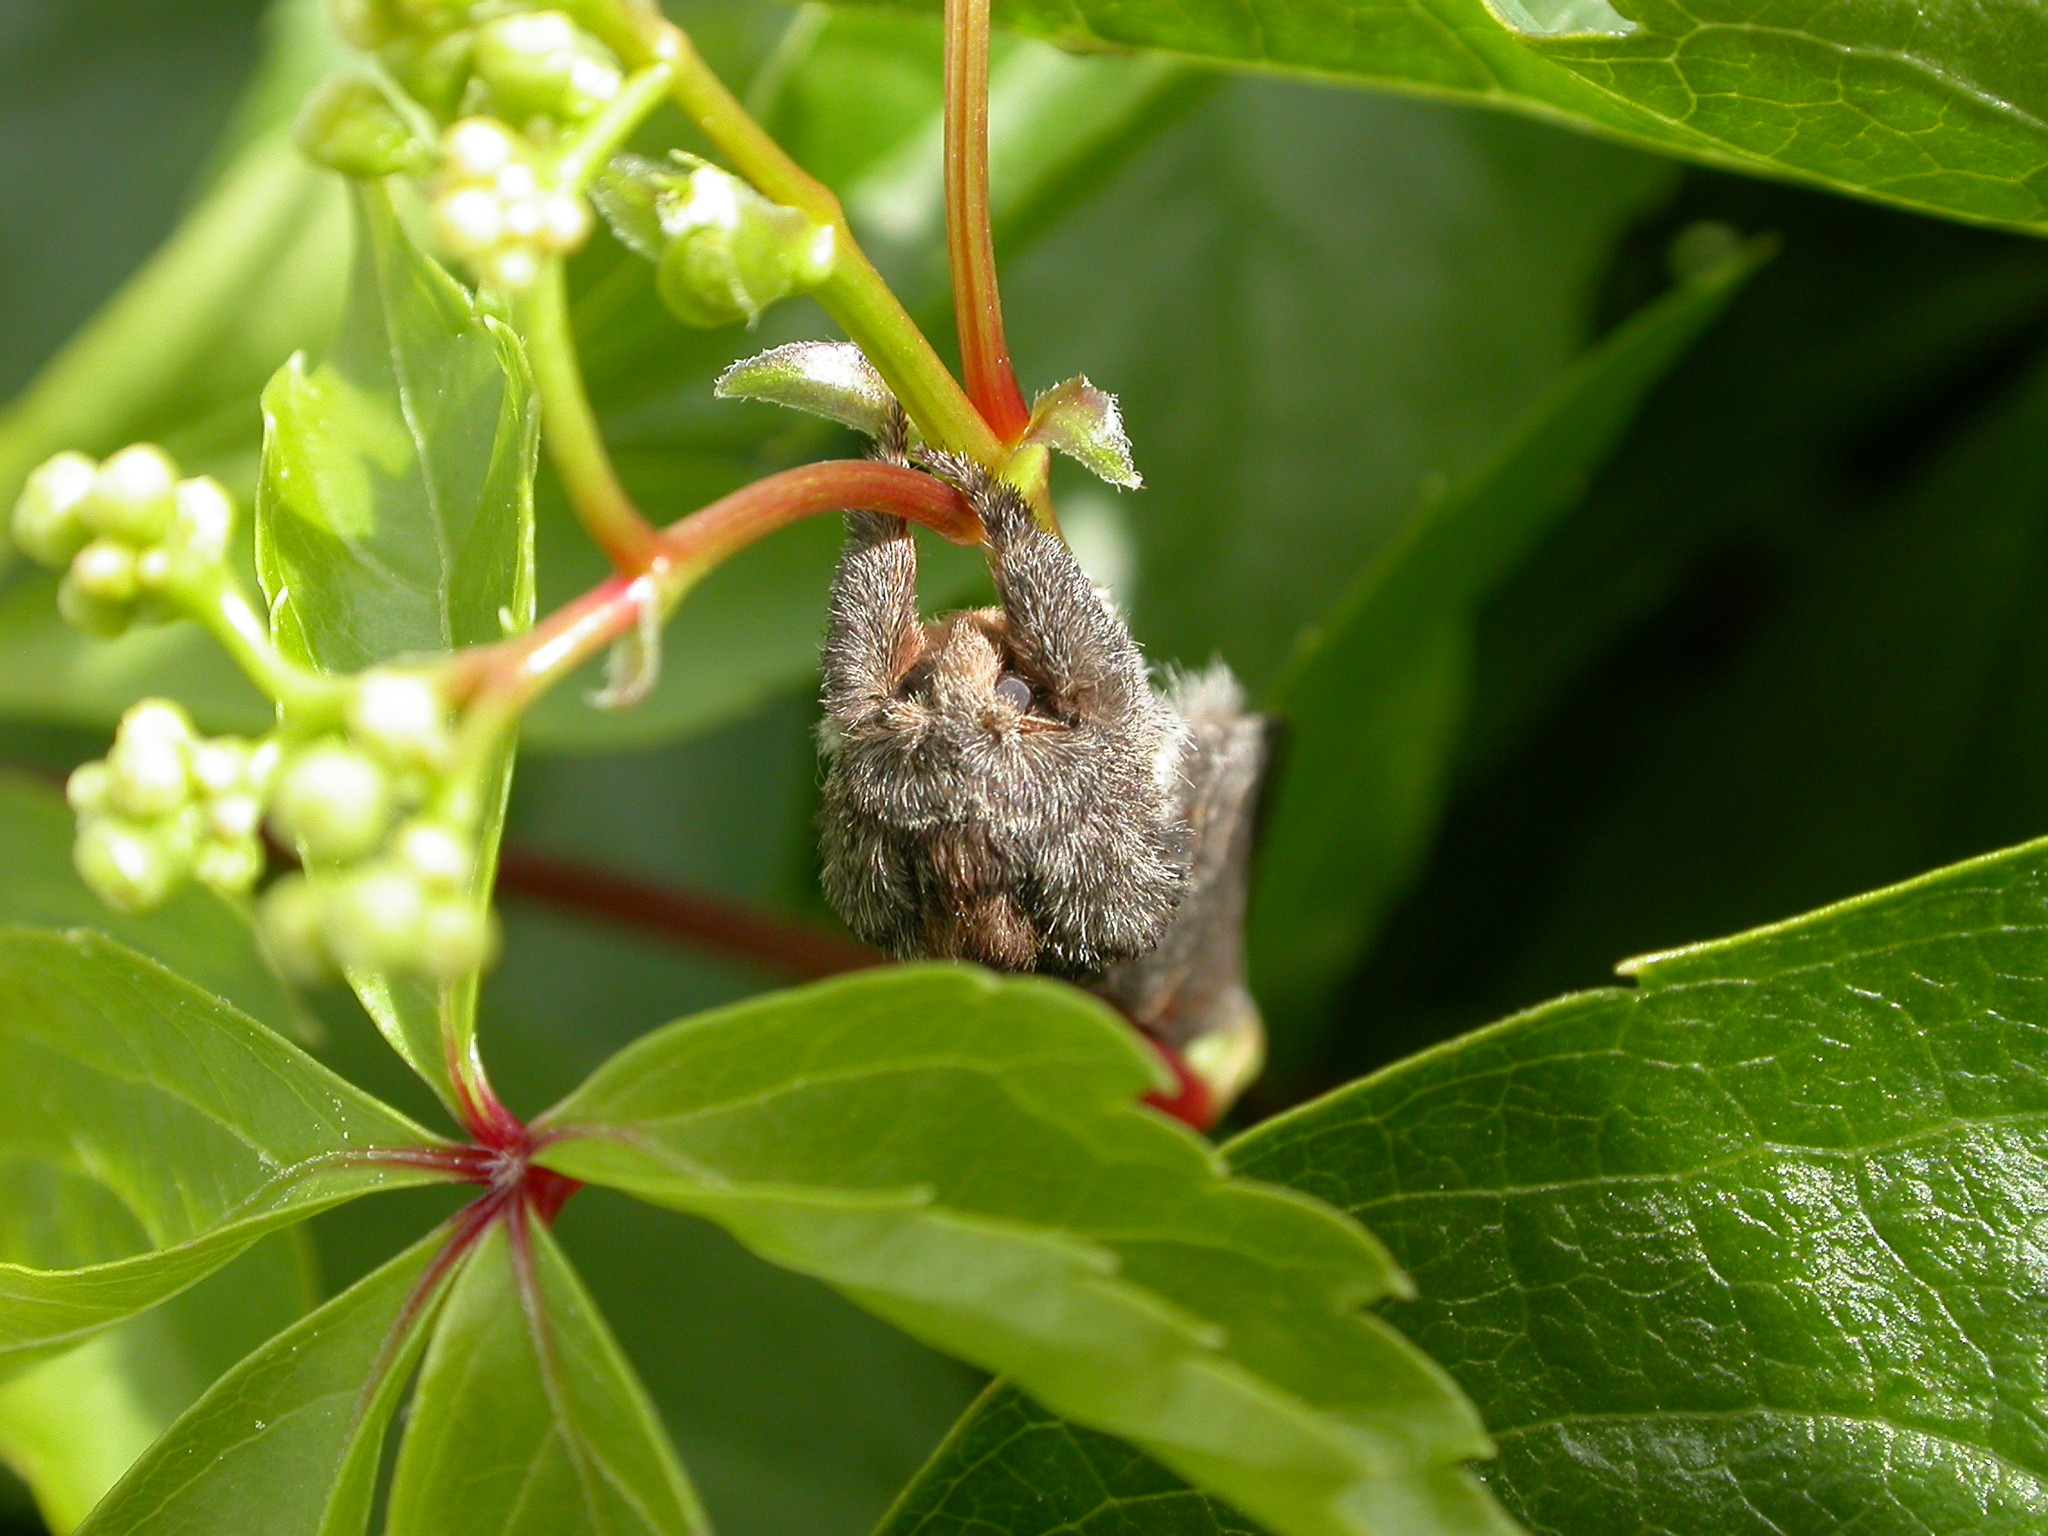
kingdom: Animalia
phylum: Arthropoda
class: Insecta
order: Lepidoptera
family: Notodontidae
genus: Notodonta
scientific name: Notodonta dromedarius
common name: Iron prominent
